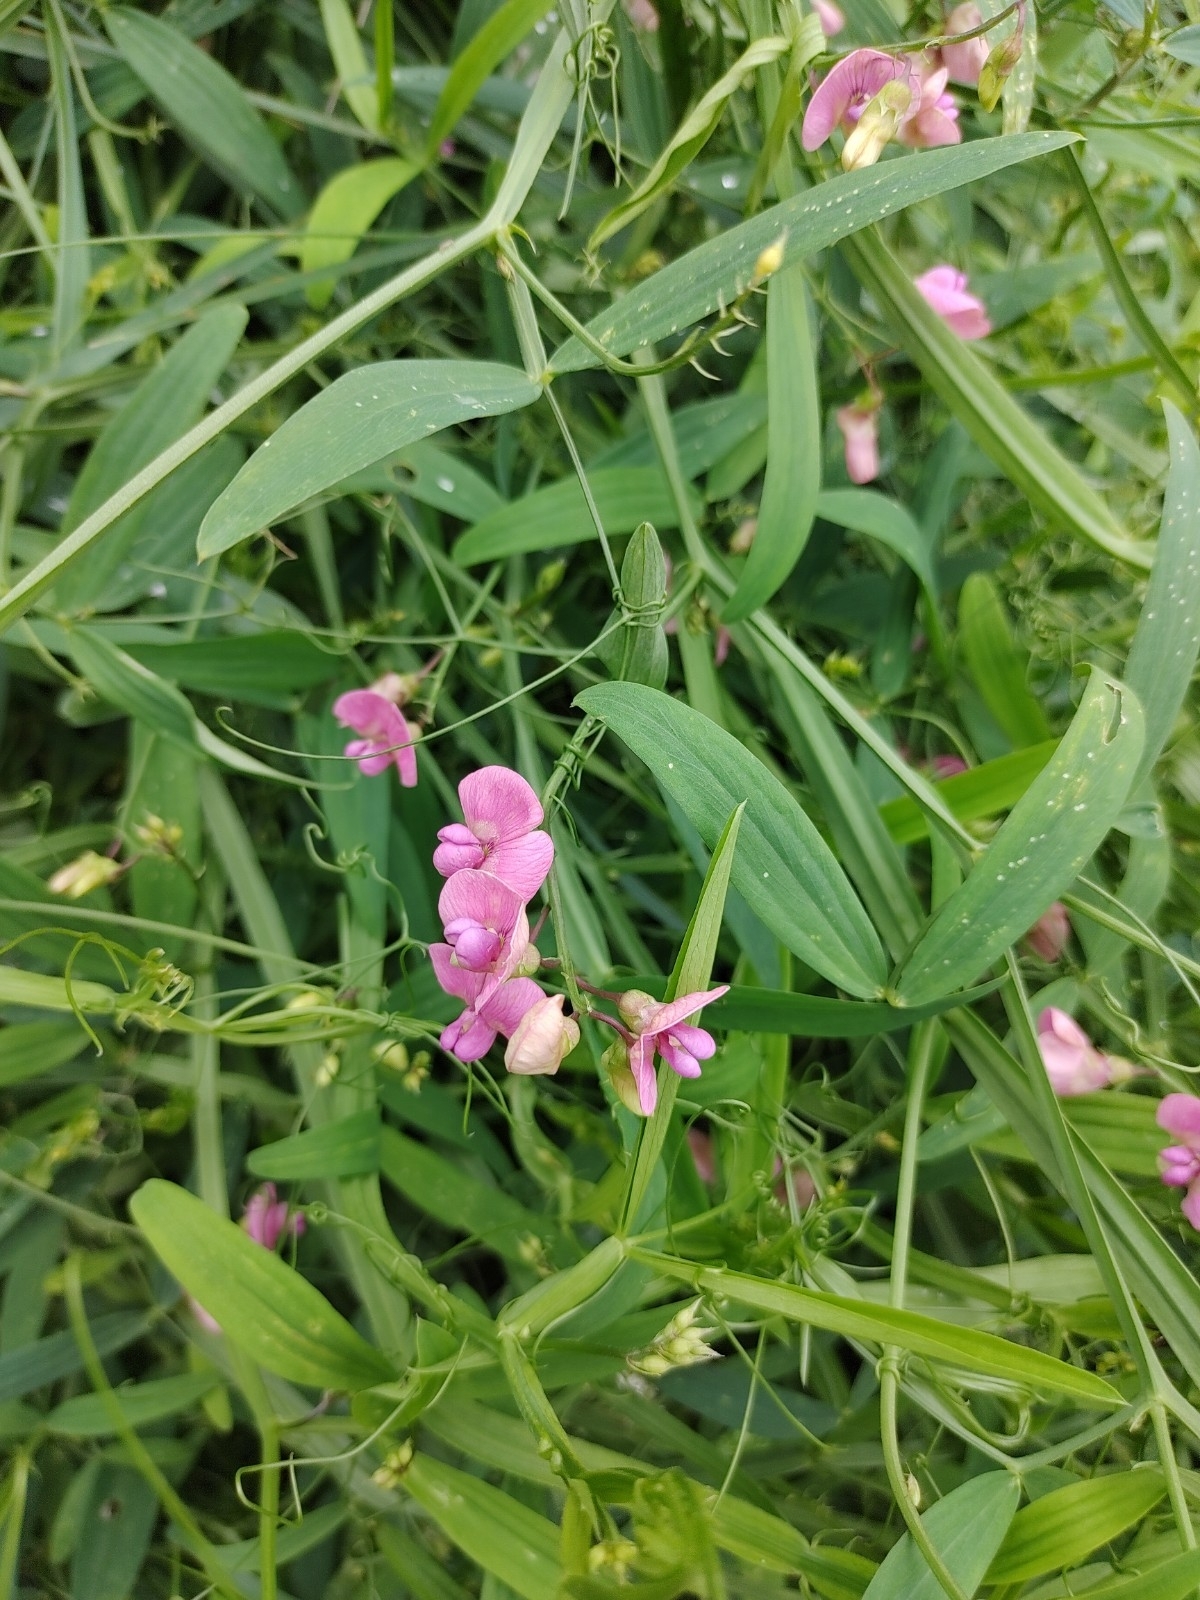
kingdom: Plantae
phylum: Tracheophyta
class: Magnoliopsida
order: Fabales
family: Fabaceae
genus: Lathyrus
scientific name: Lathyrus sylvestris
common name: Flat pea
